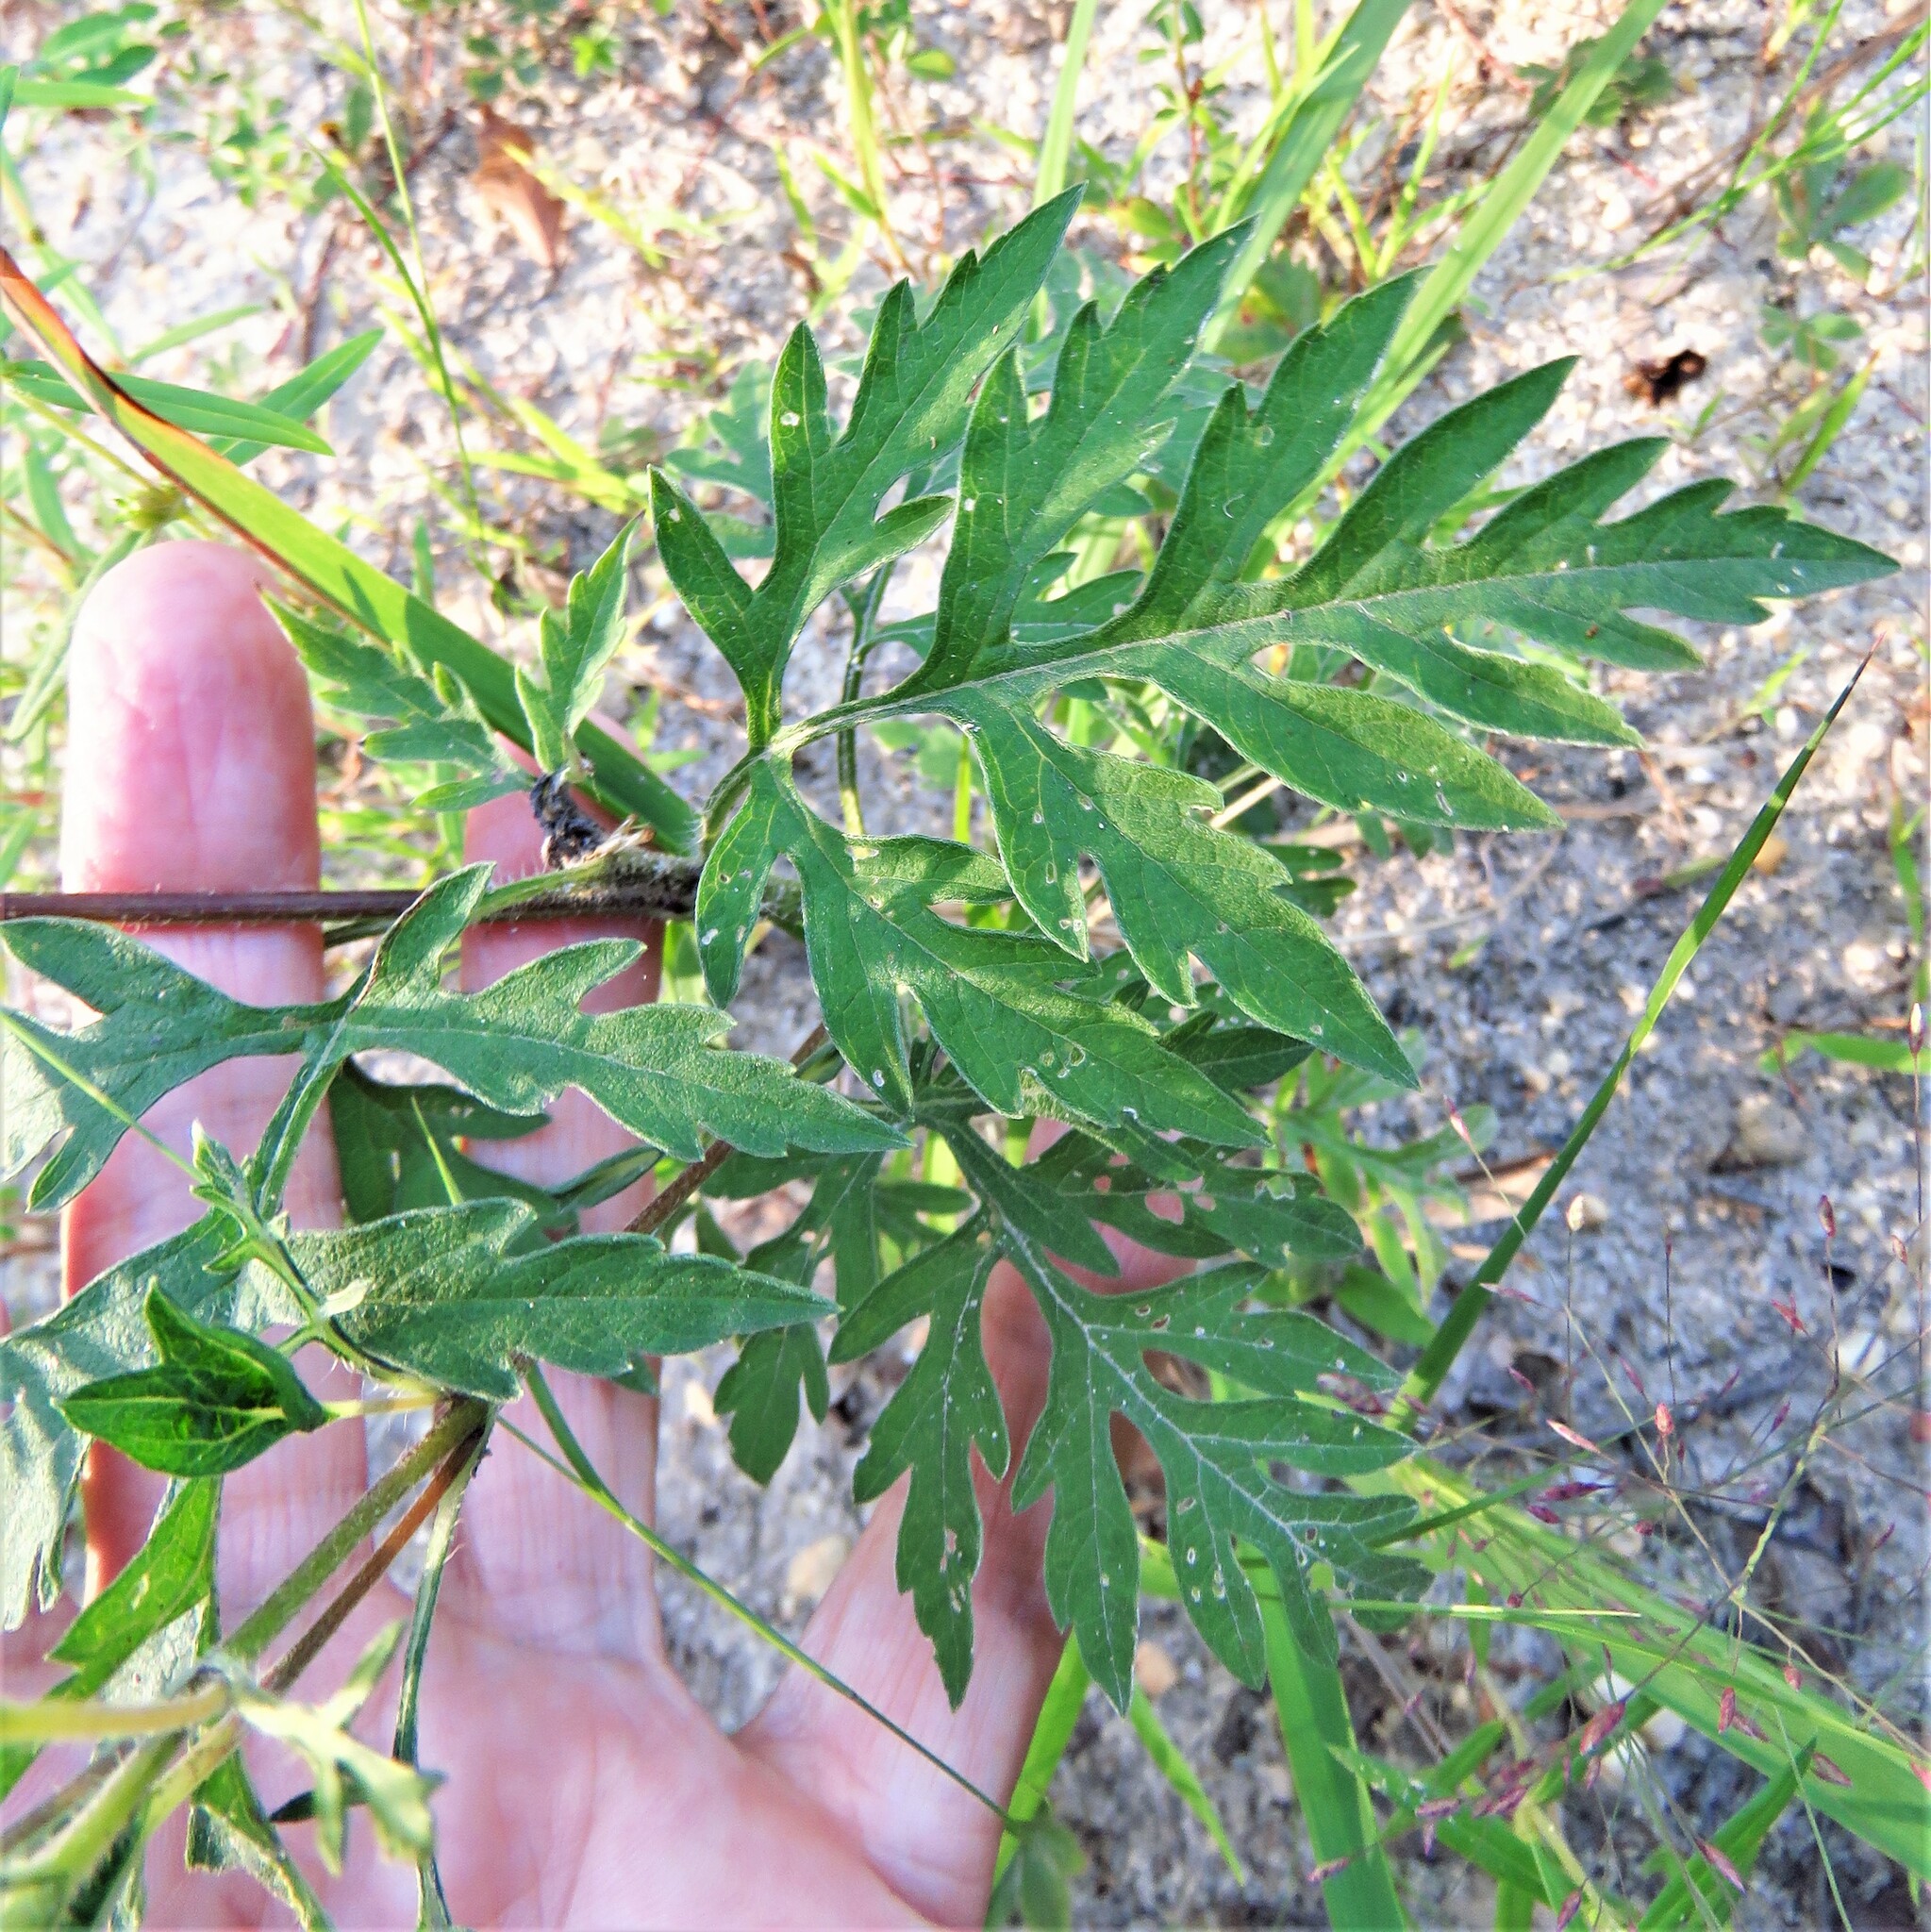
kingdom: Plantae
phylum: Tracheophyta
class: Magnoliopsida
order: Asterales
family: Asteraceae
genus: Ambrosia
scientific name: Ambrosia artemisiifolia
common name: Annual ragweed
